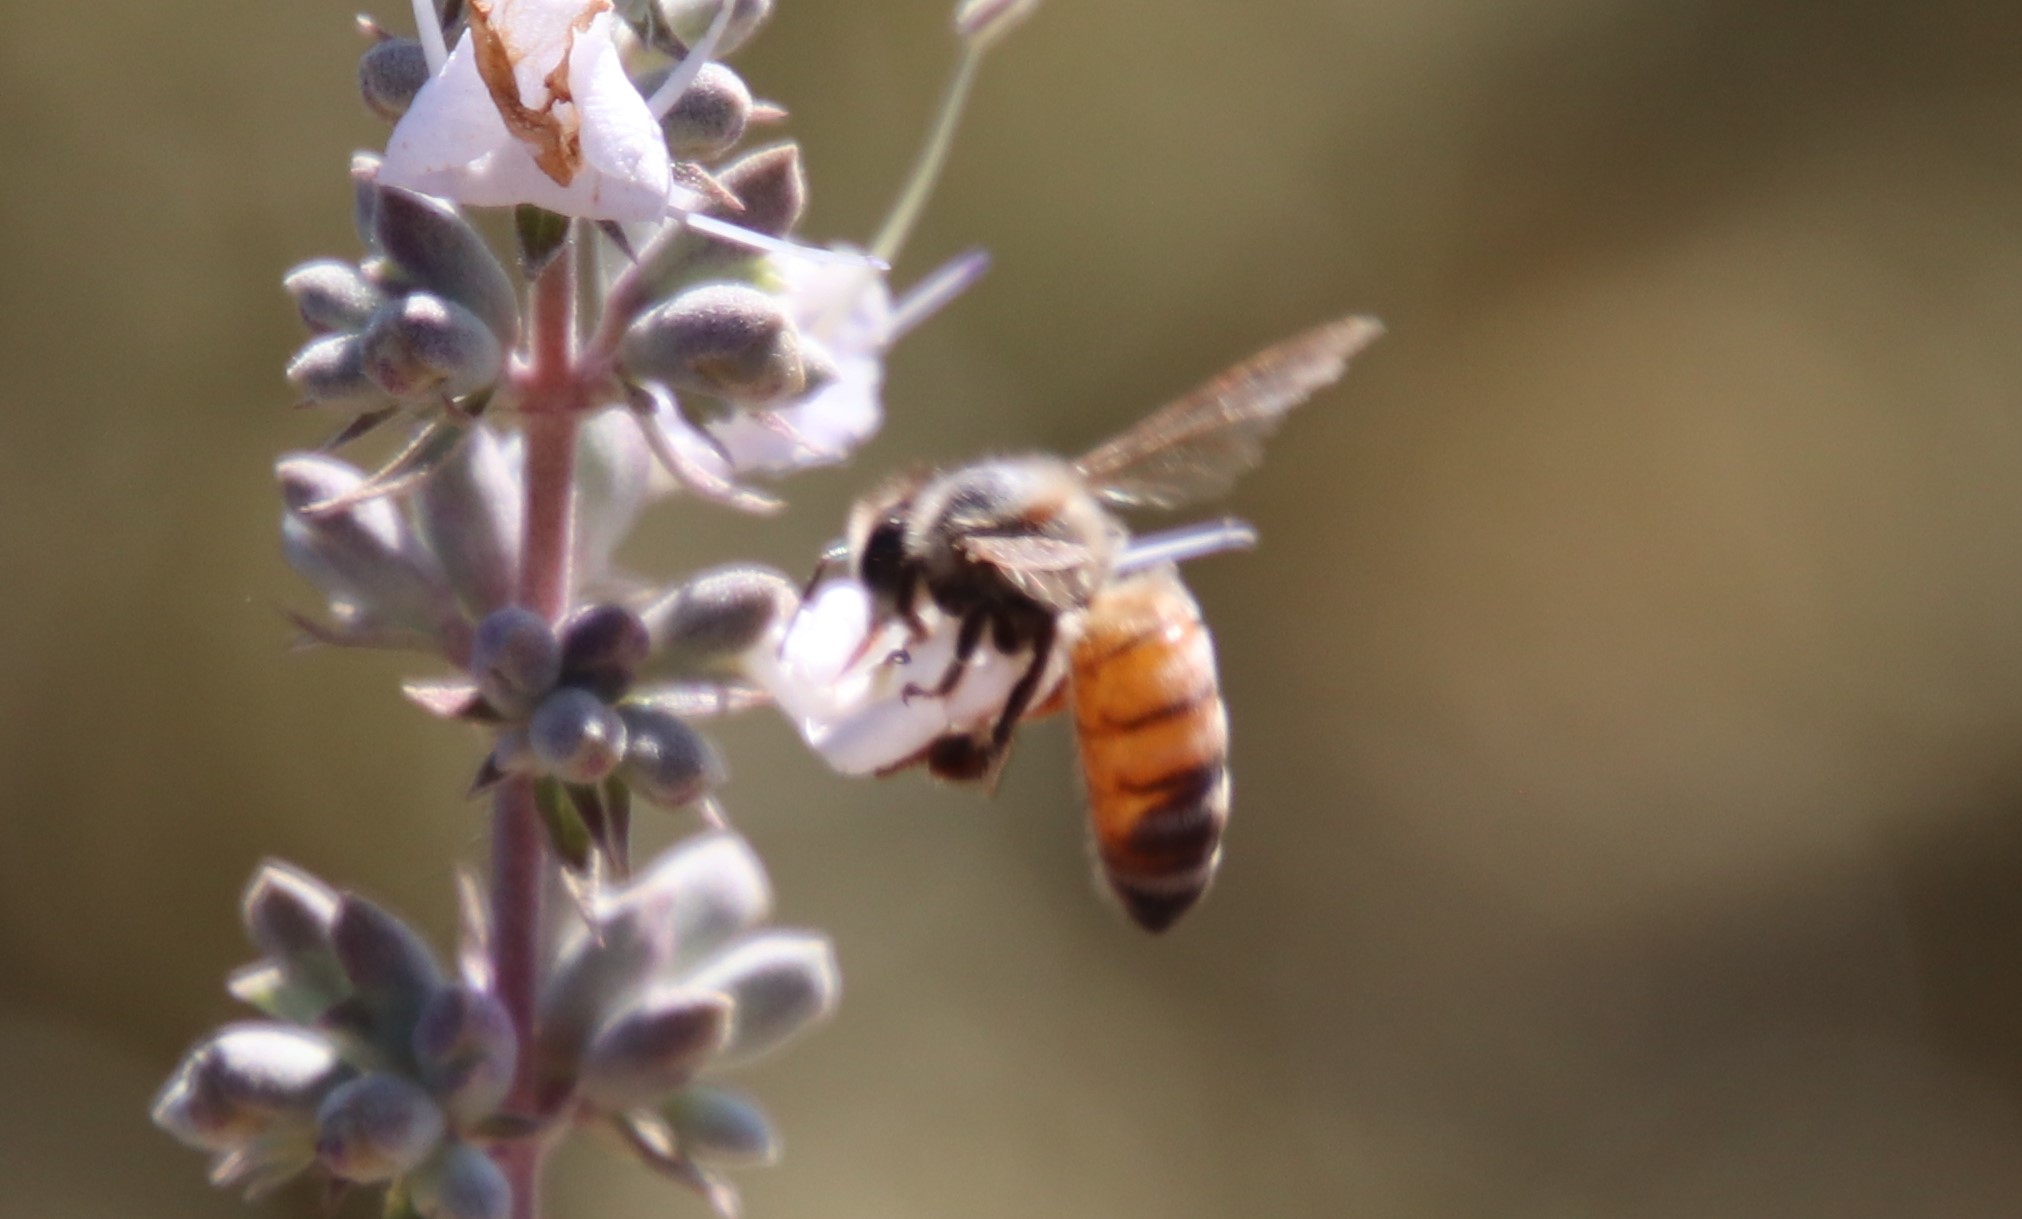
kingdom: Animalia
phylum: Arthropoda
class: Insecta
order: Hymenoptera
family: Apidae
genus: Apis
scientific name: Apis mellifera
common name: Honey bee
